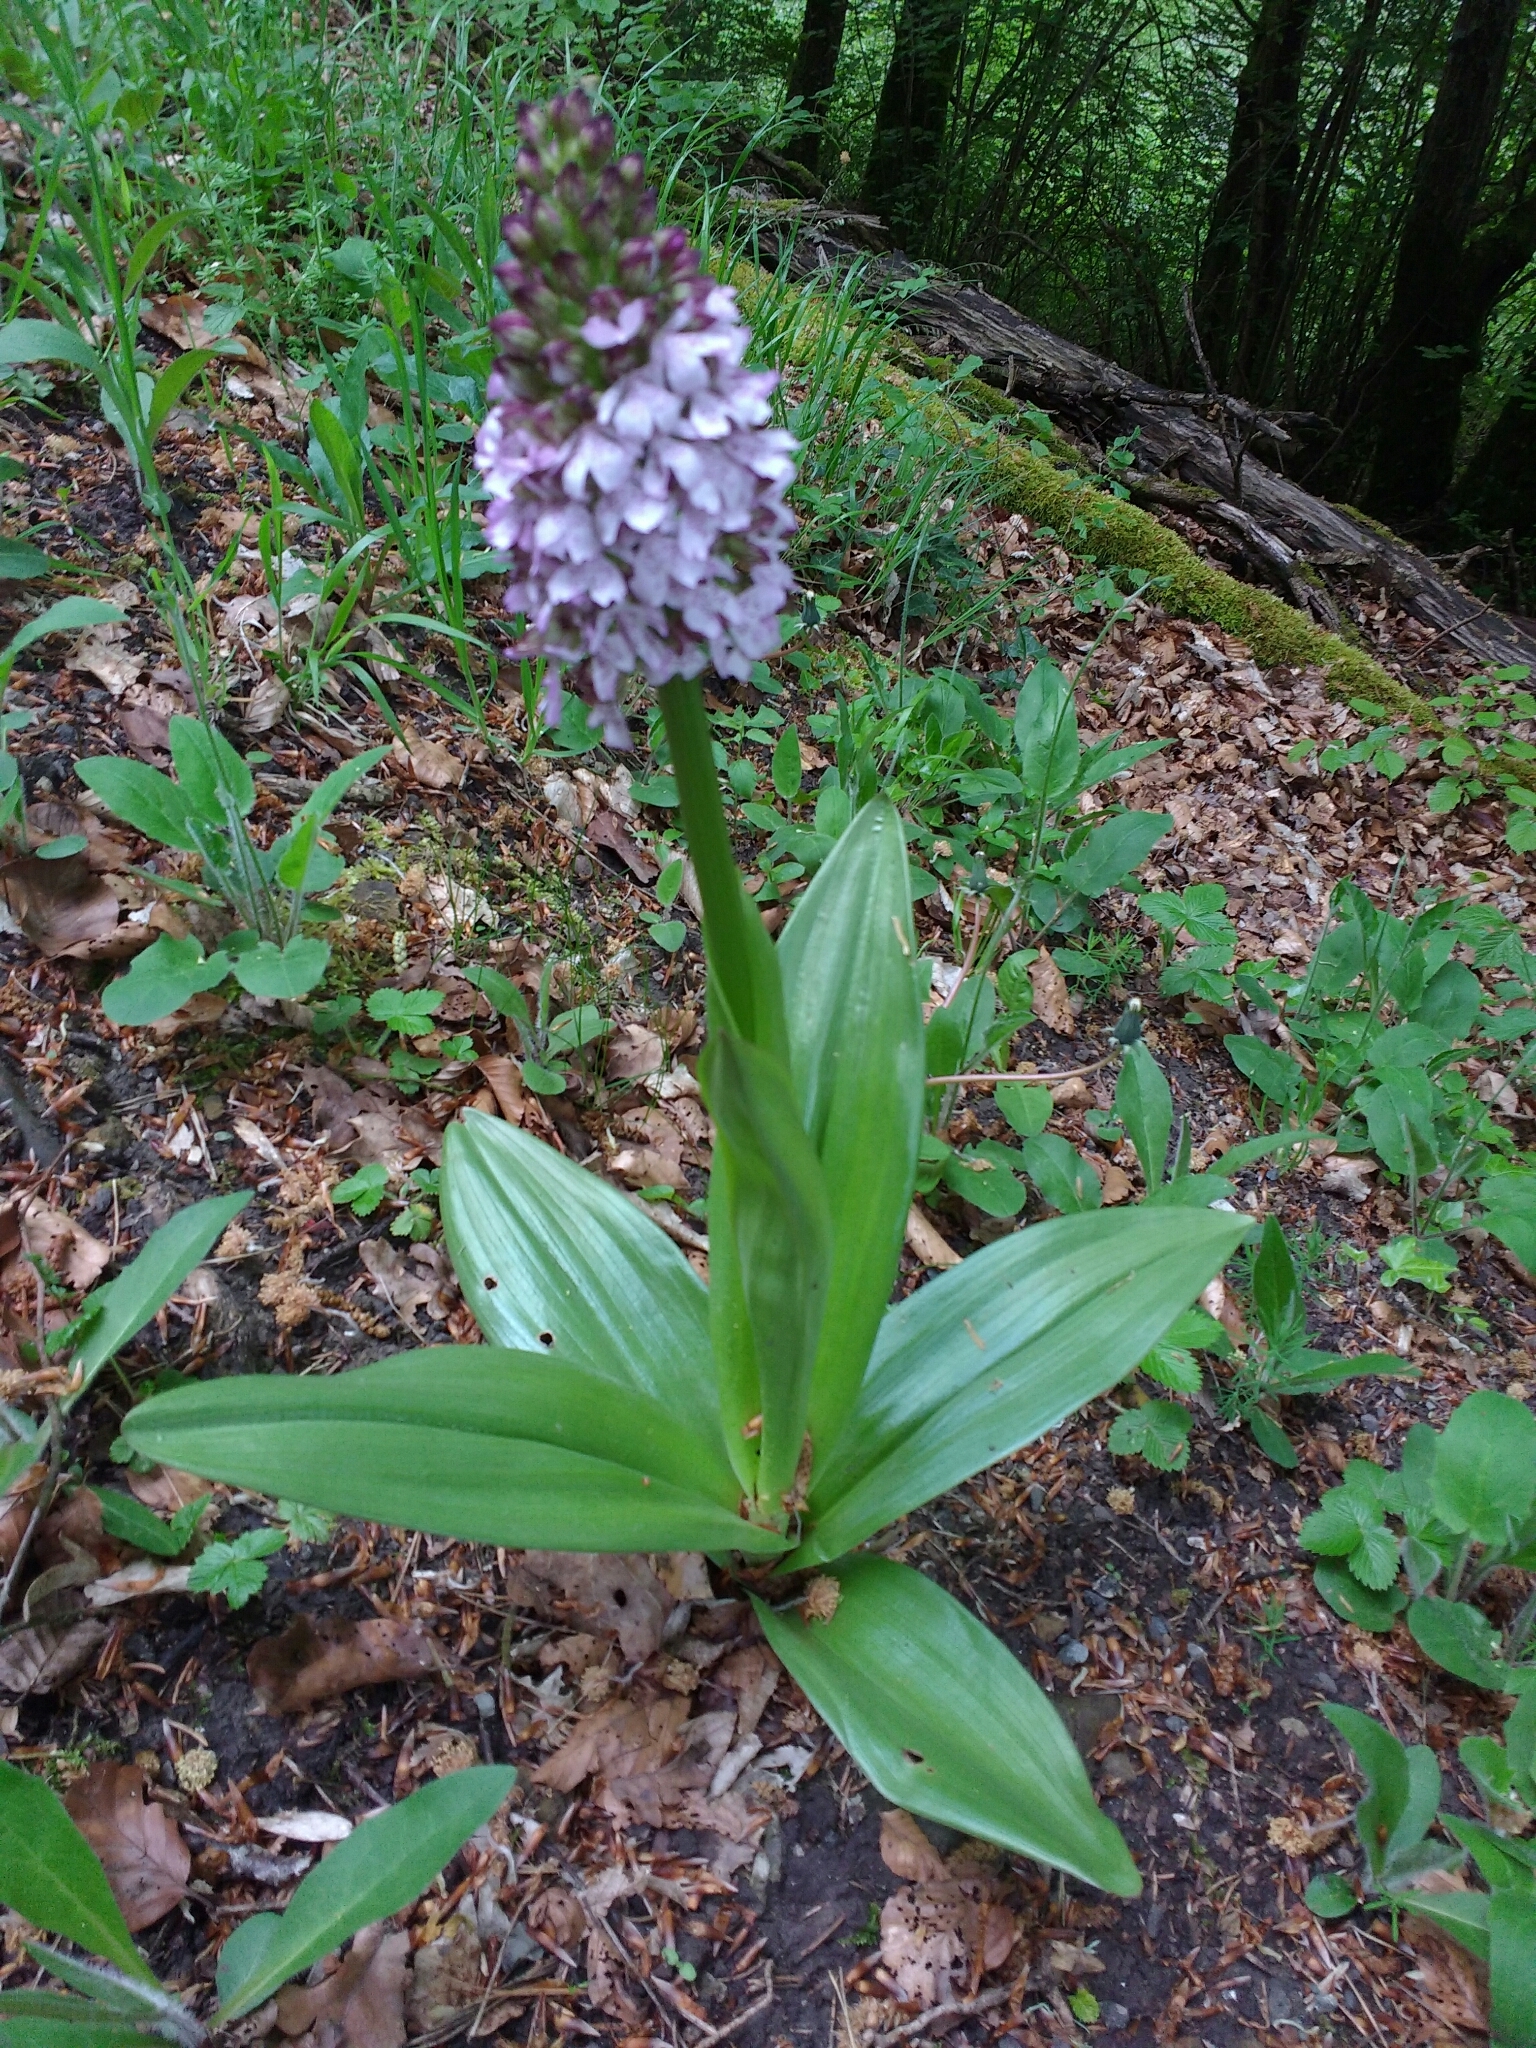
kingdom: Plantae
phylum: Tracheophyta
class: Liliopsida
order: Asparagales
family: Orchidaceae
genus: Orchis
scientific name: Orchis purpurea
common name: Lady orchid
